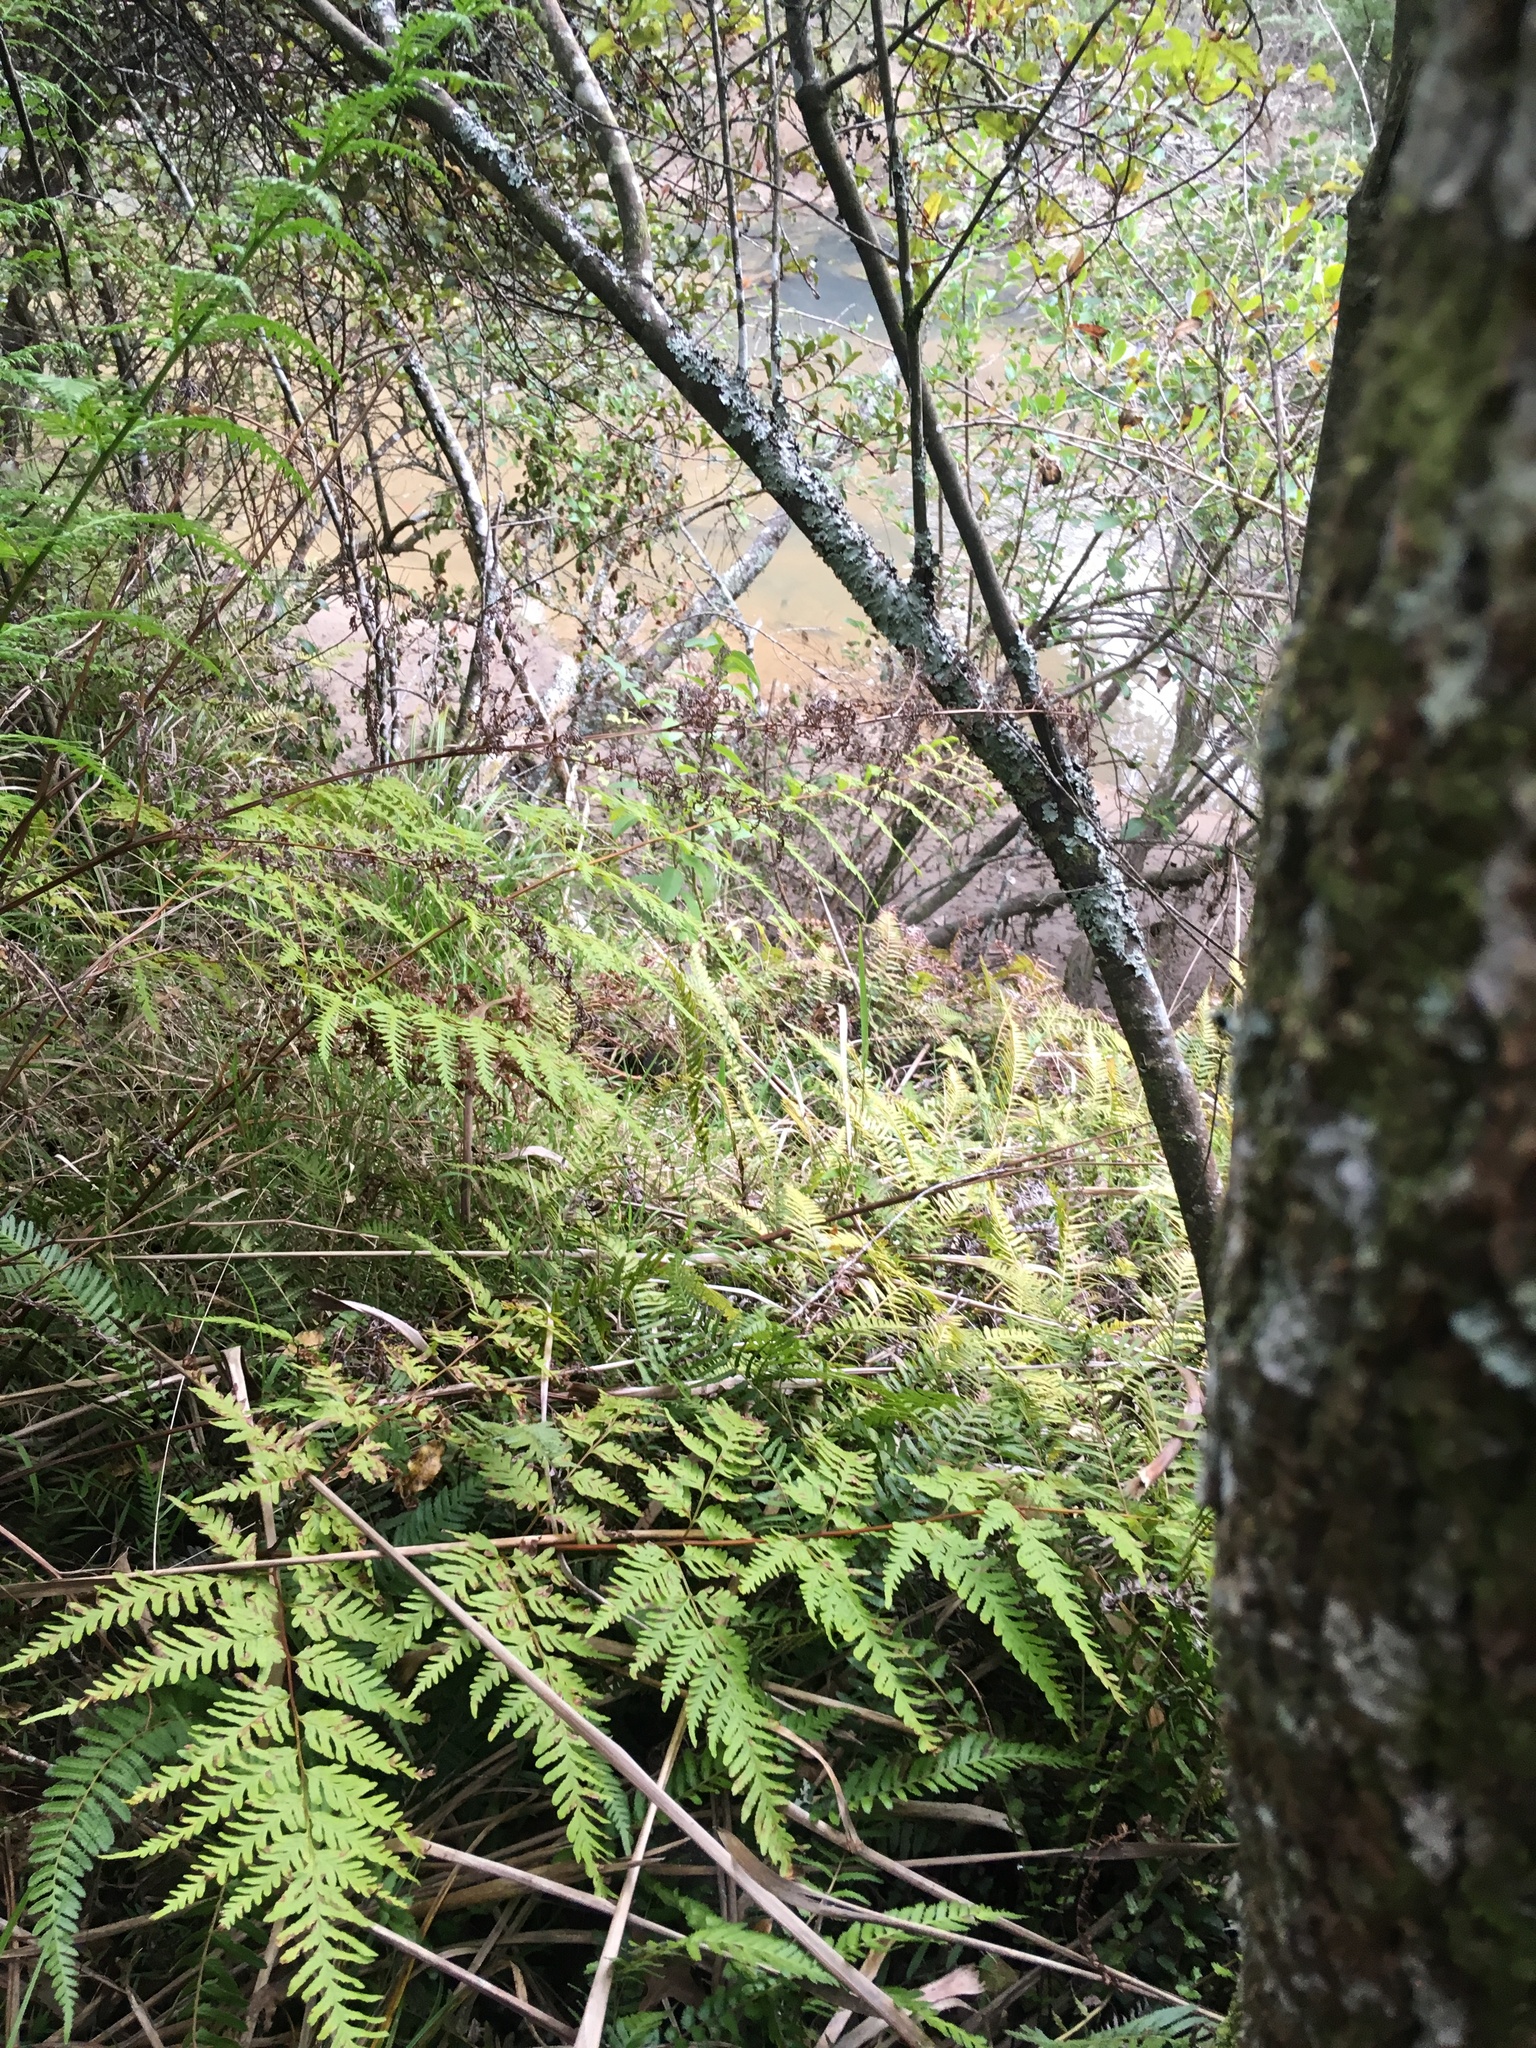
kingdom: Plantae
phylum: Tracheophyta
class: Polypodiopsida
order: Polypodiales
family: Pteridaceae
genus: Pteris
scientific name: Pteris tremula
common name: Australian brake
